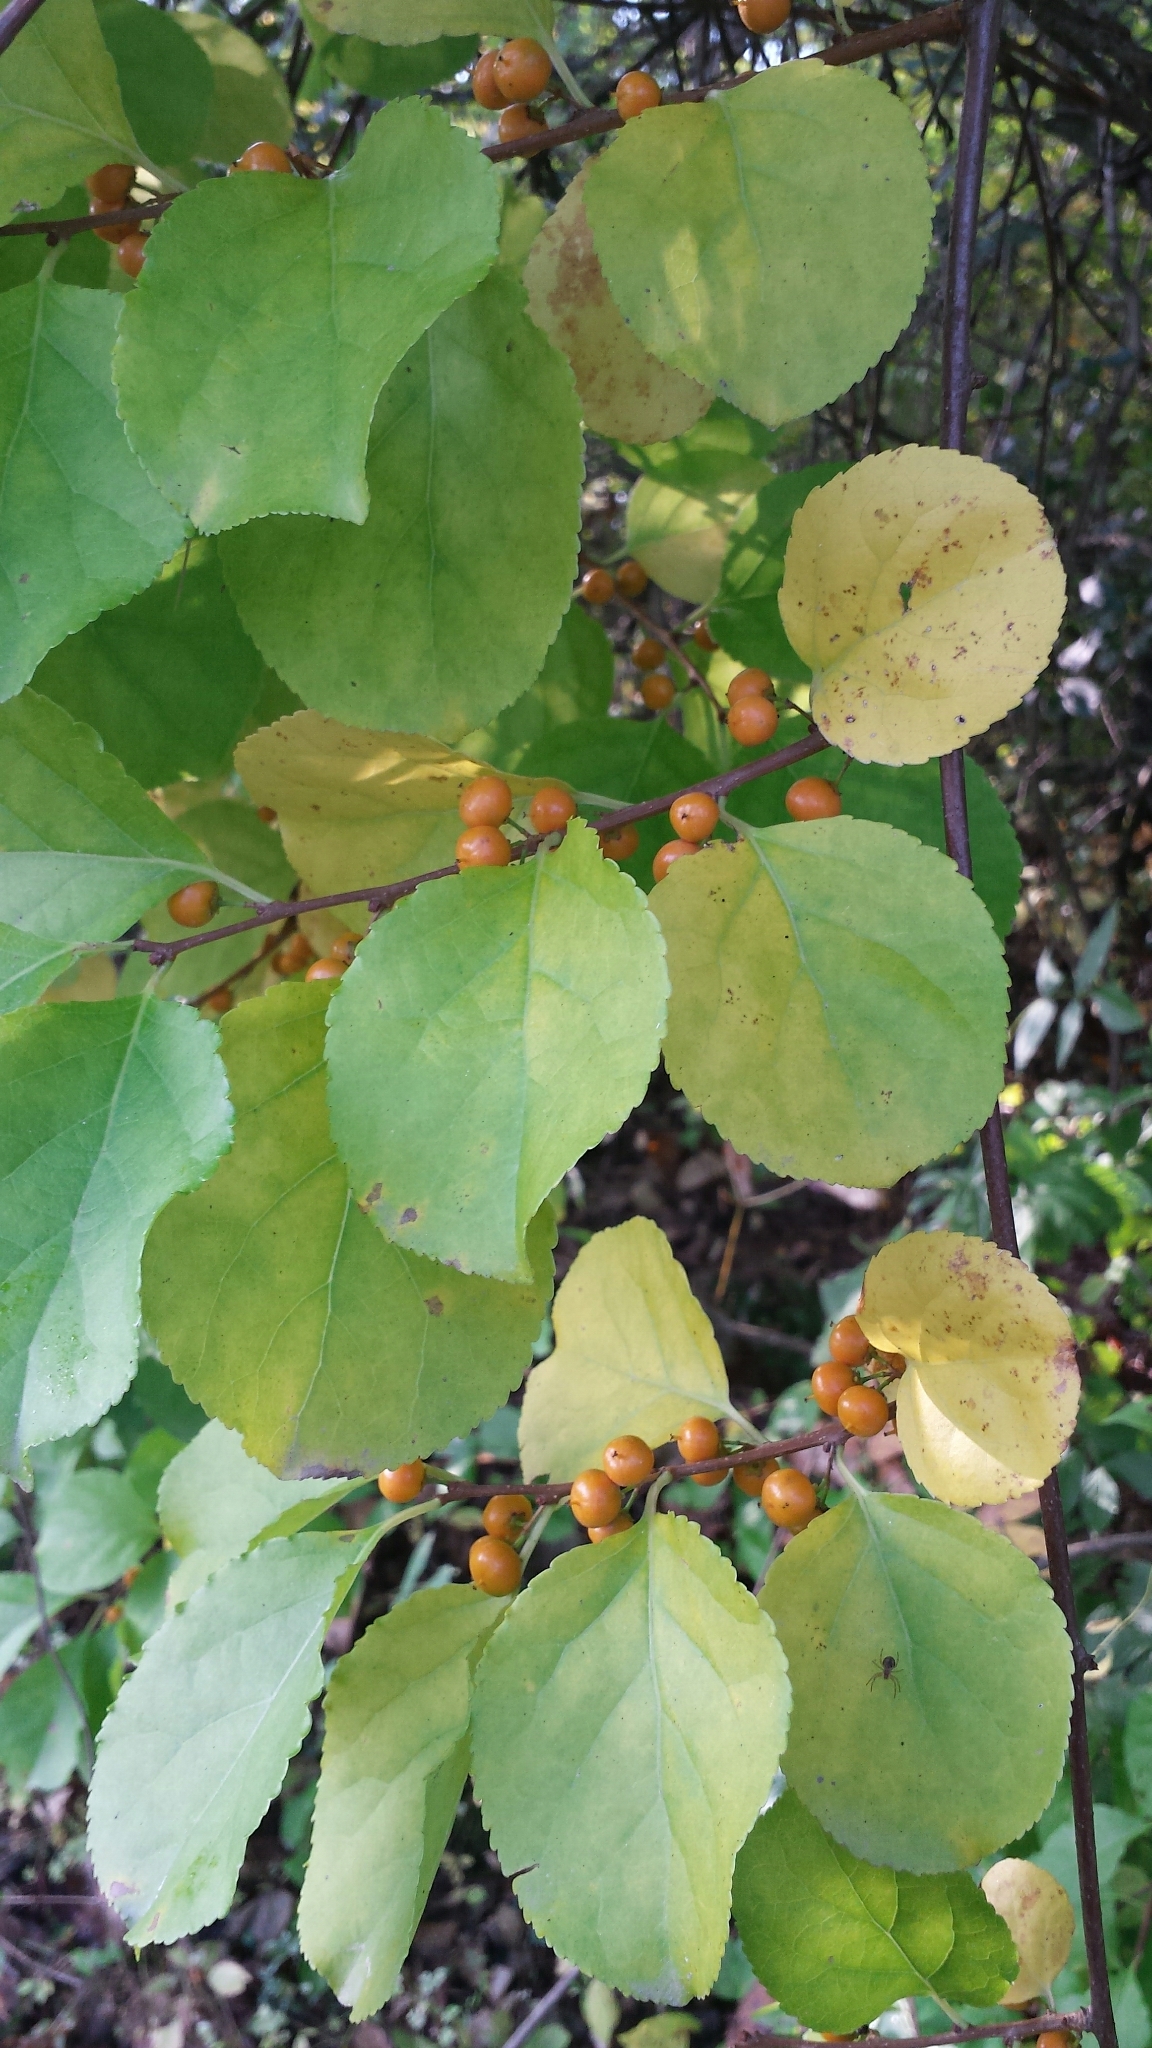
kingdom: Plantae
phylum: Tracheophyta
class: Magnoliopsida
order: Celastrales
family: Celastraceae
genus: Celastrus
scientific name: Celastrus orbiculatus
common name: Oriental bittersweet
